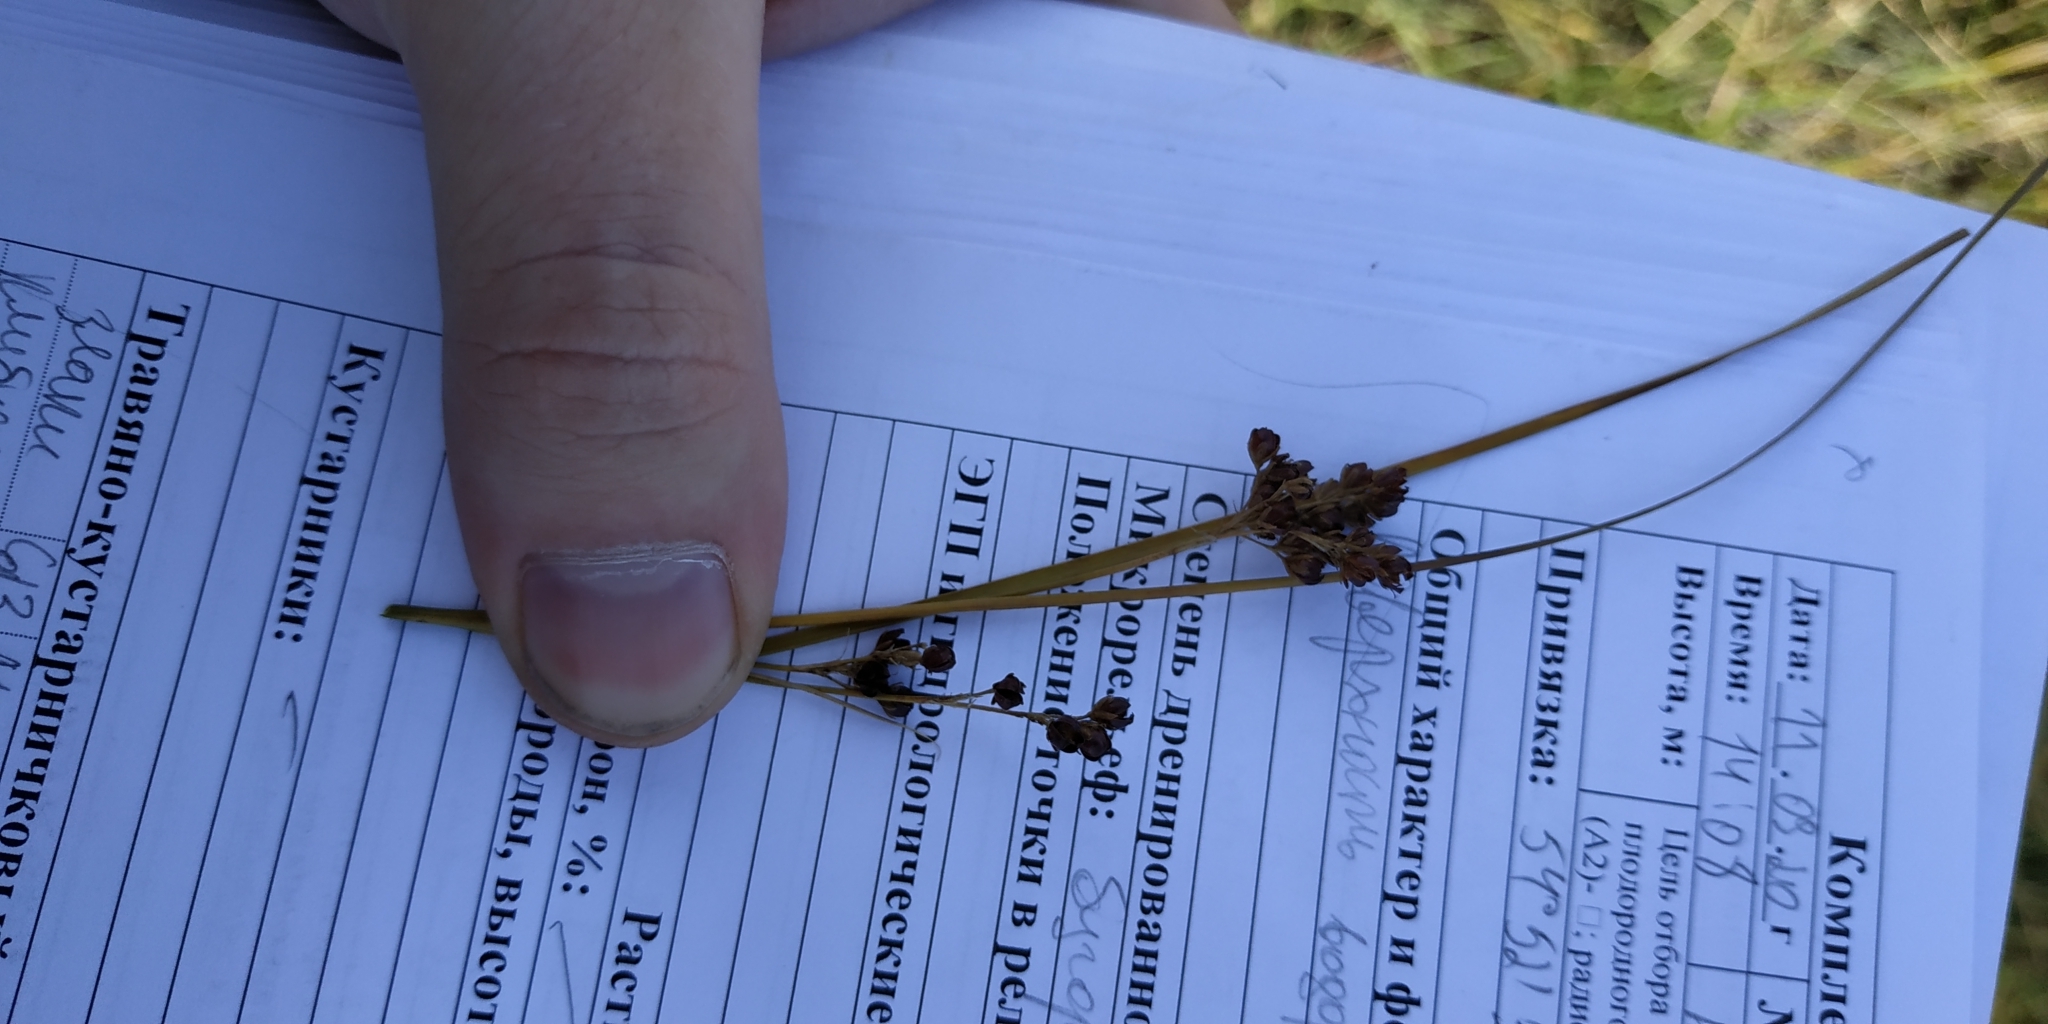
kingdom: Plantae
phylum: Tracheophyta
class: Liliopsida
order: Poales
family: Juncaceae
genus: Juncus
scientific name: Juncus compressus
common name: Round-fruited rush
